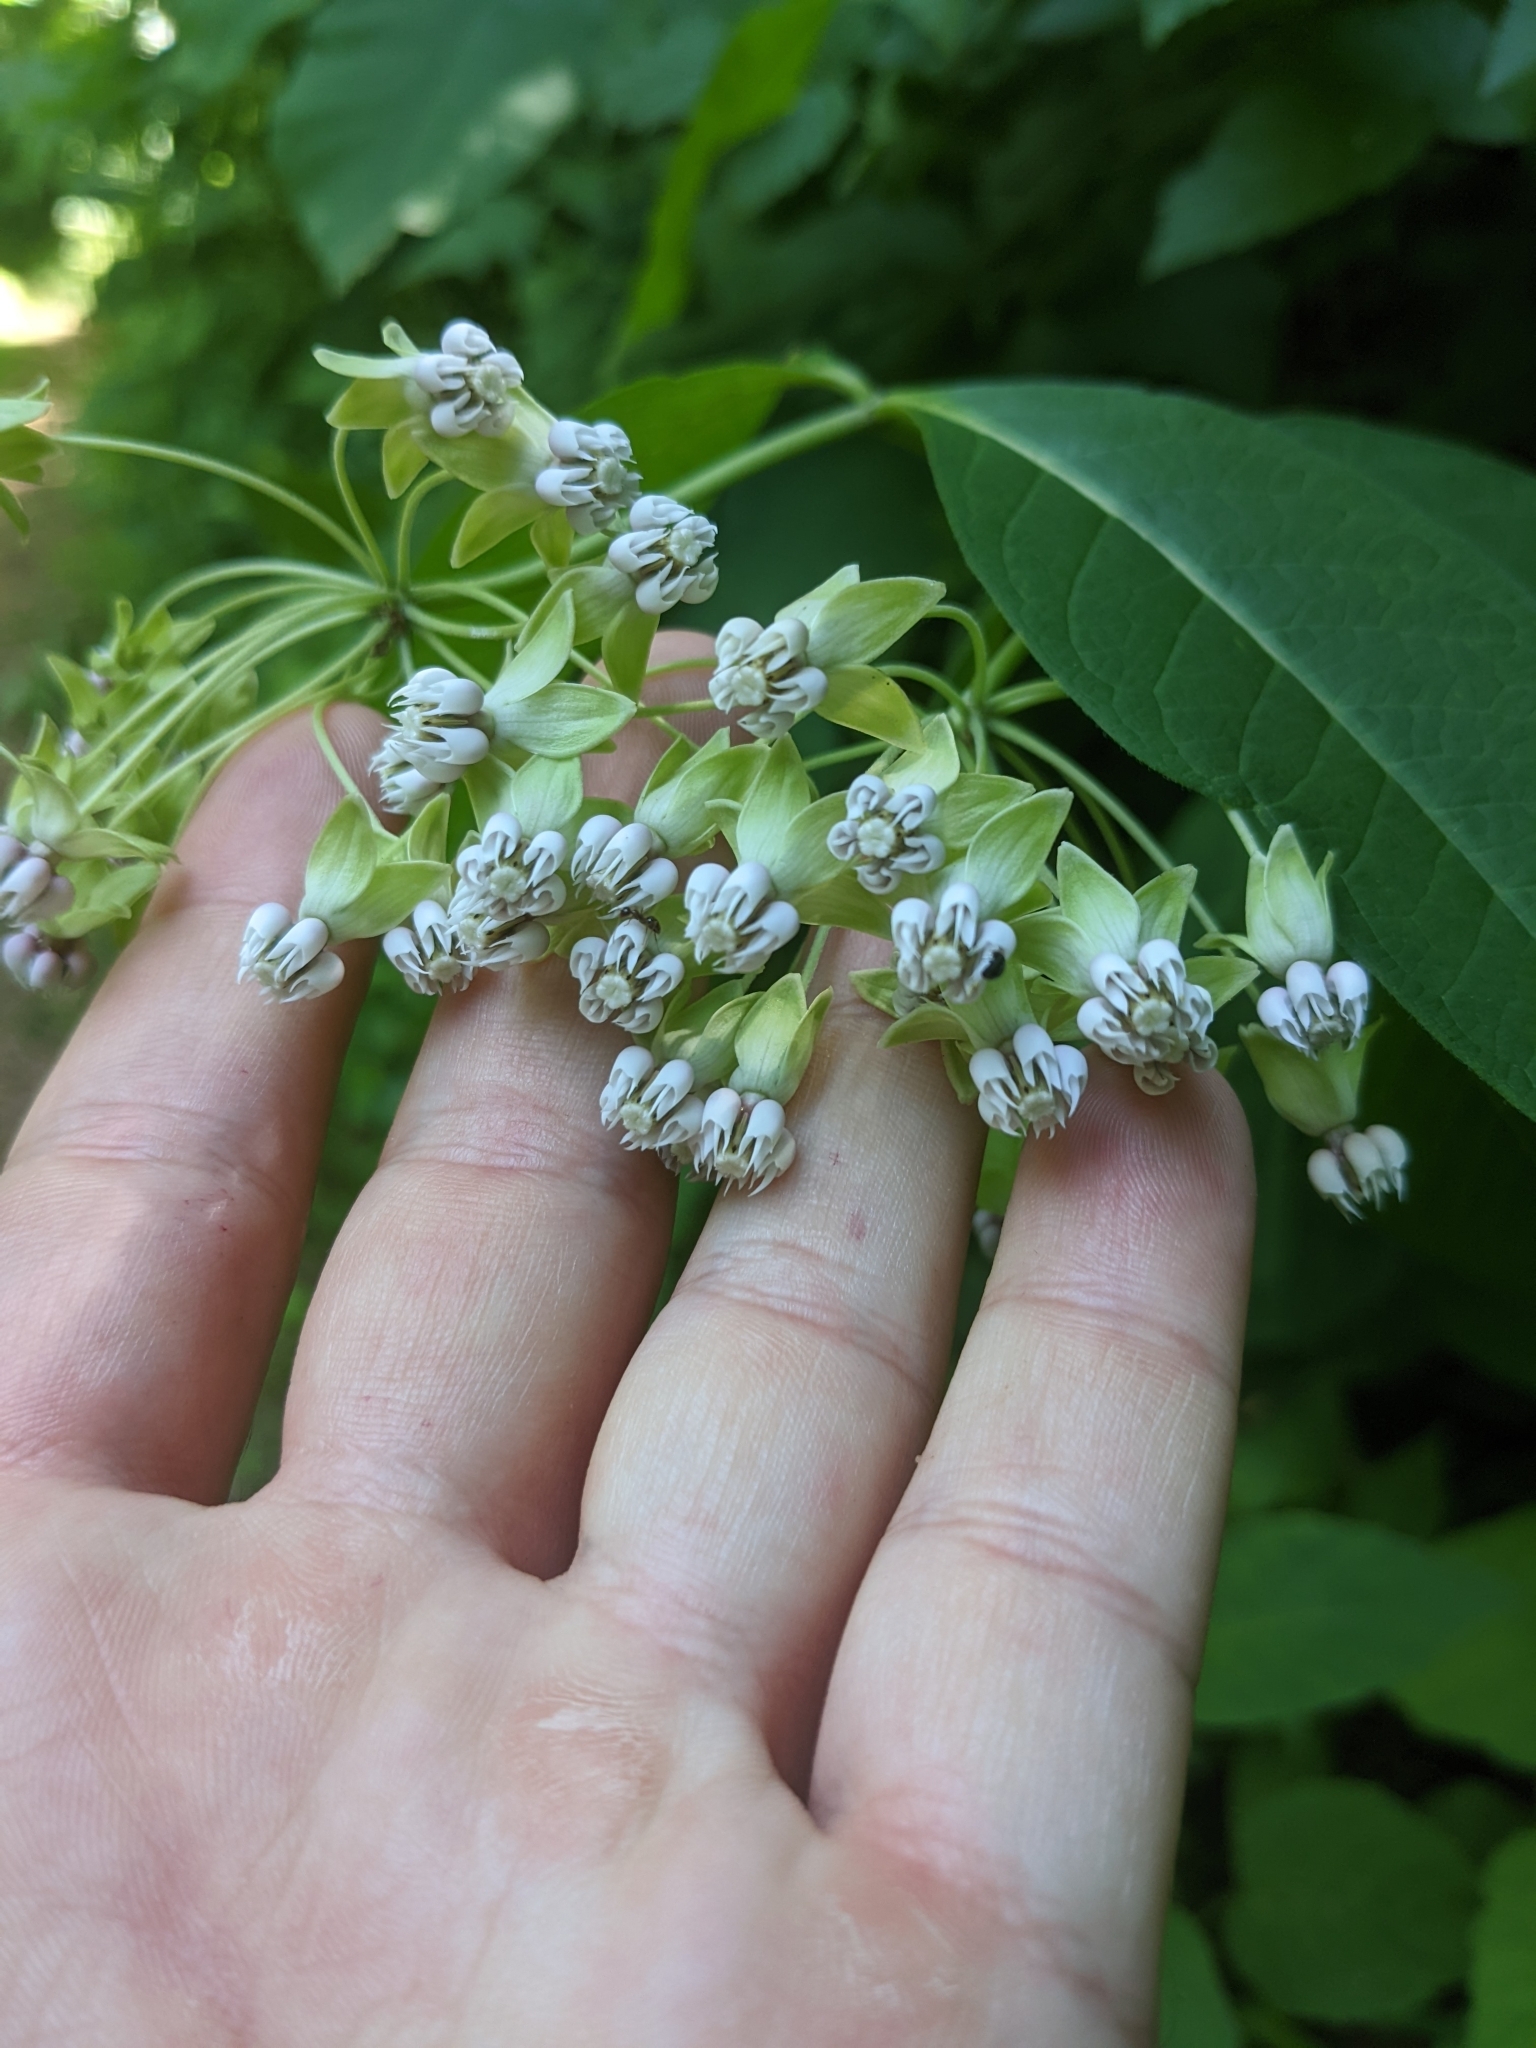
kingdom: Plantae
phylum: Tracheophyta
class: Magnoliopsida
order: Gentianales
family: Apocynaceae
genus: Asclepias
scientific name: Asclepias exaltata
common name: Poke milkweed
